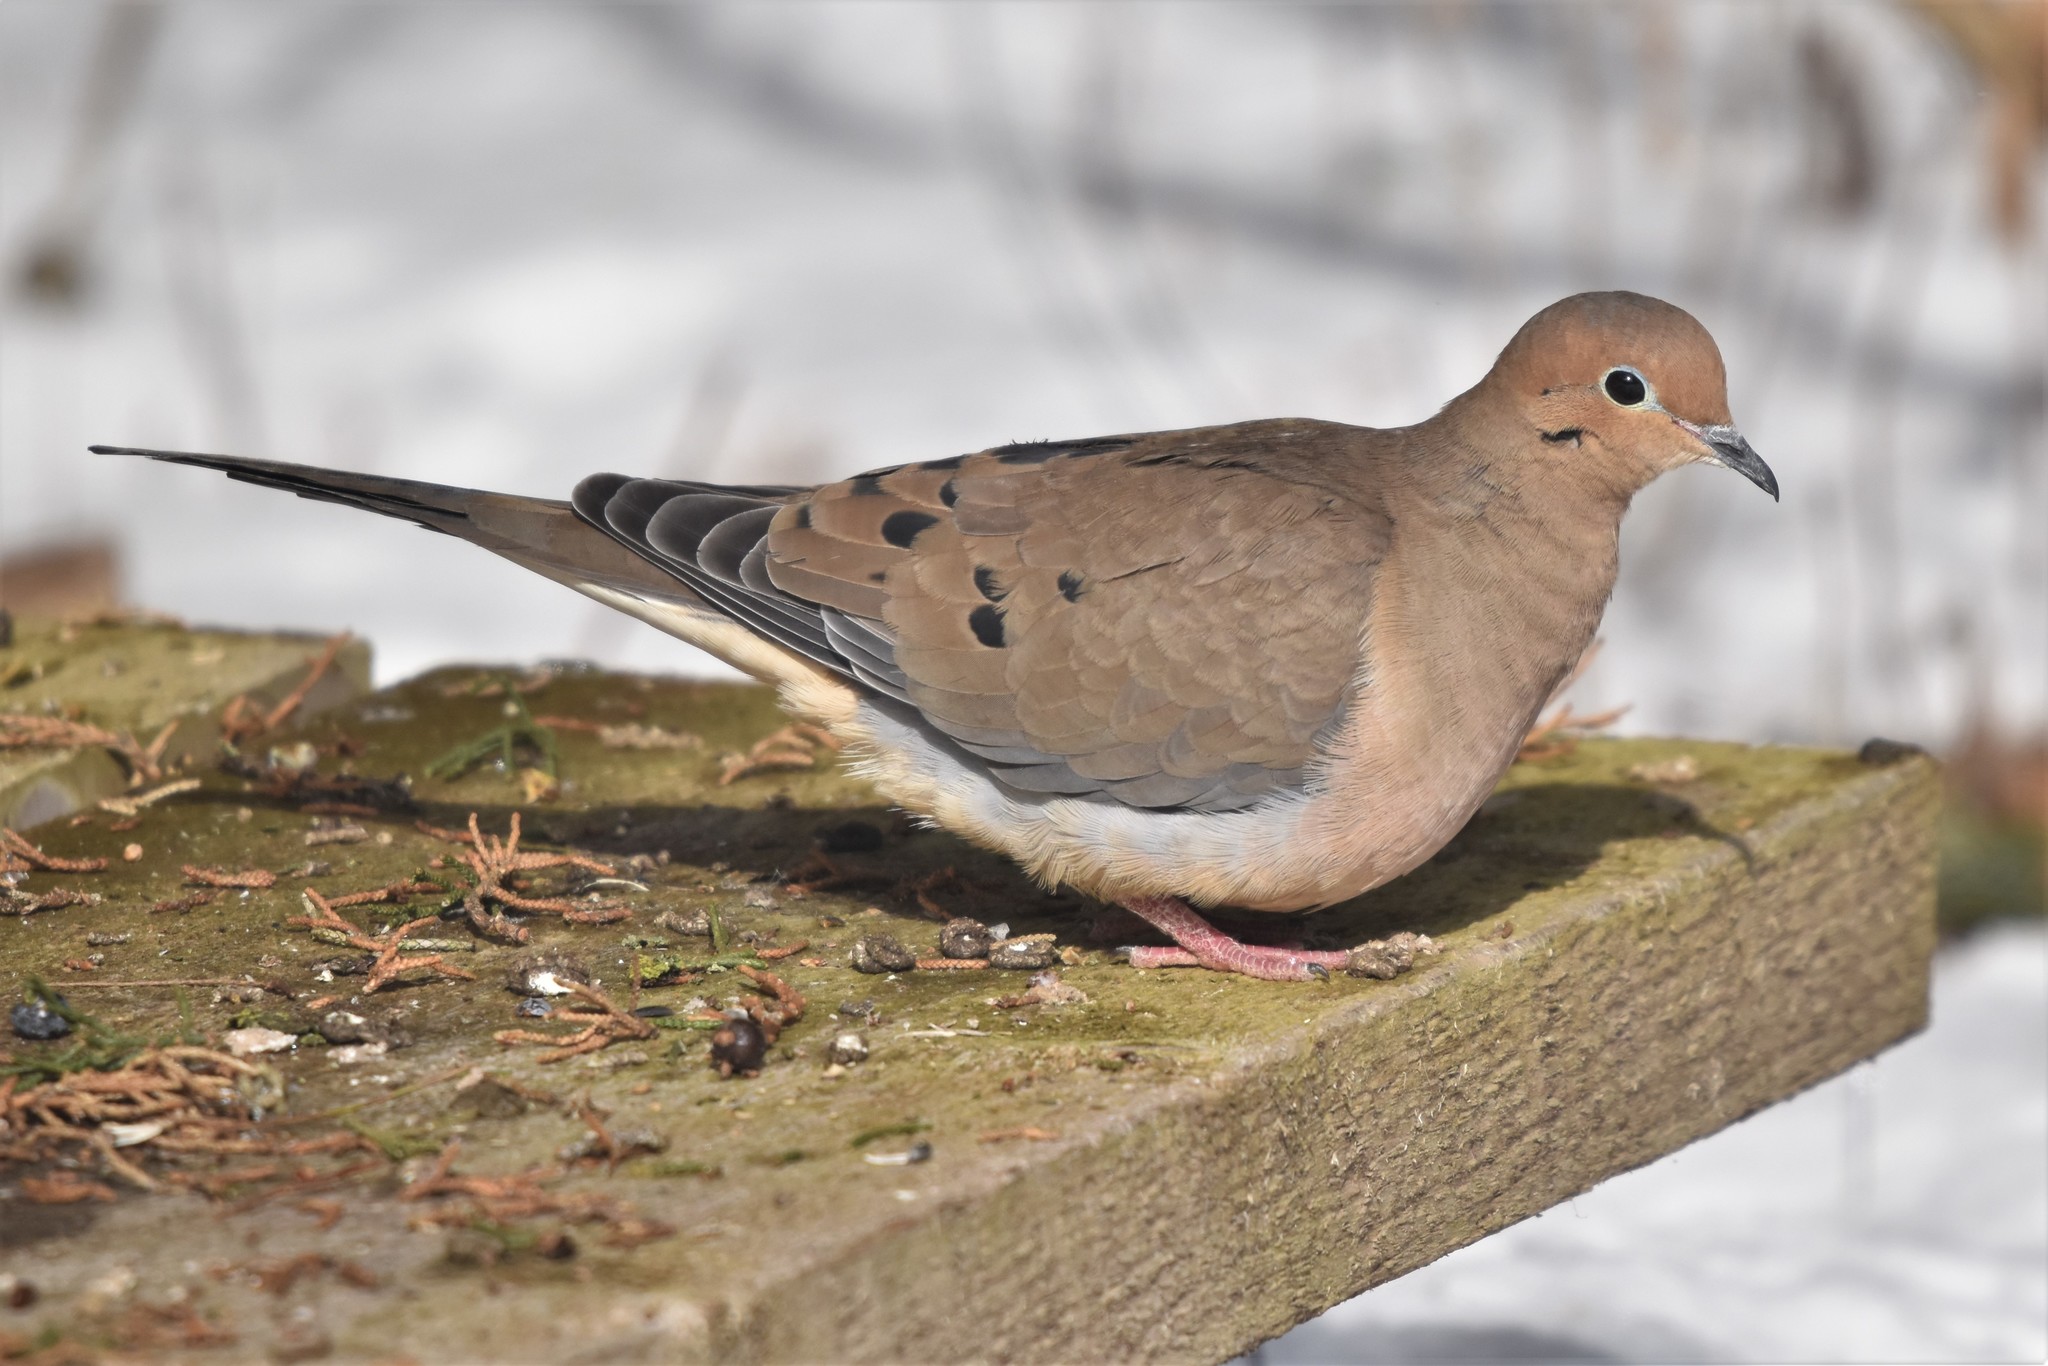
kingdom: Animalia
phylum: Chordata
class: Aves
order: Columbiformes
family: Columbidae
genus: Zenaida
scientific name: Zenaida macroura
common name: Mourning dove
